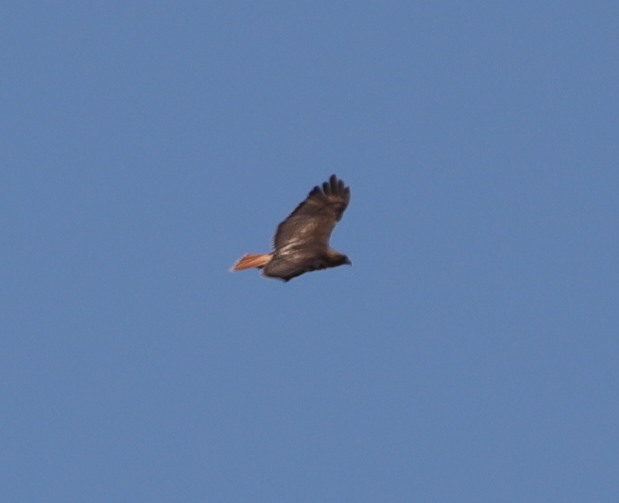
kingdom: Animalia
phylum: Chordata
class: Aves
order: Accipitriformes
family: Accipitridae
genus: Buteo
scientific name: Buteo jamaicensis
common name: Red-tailed hawk
